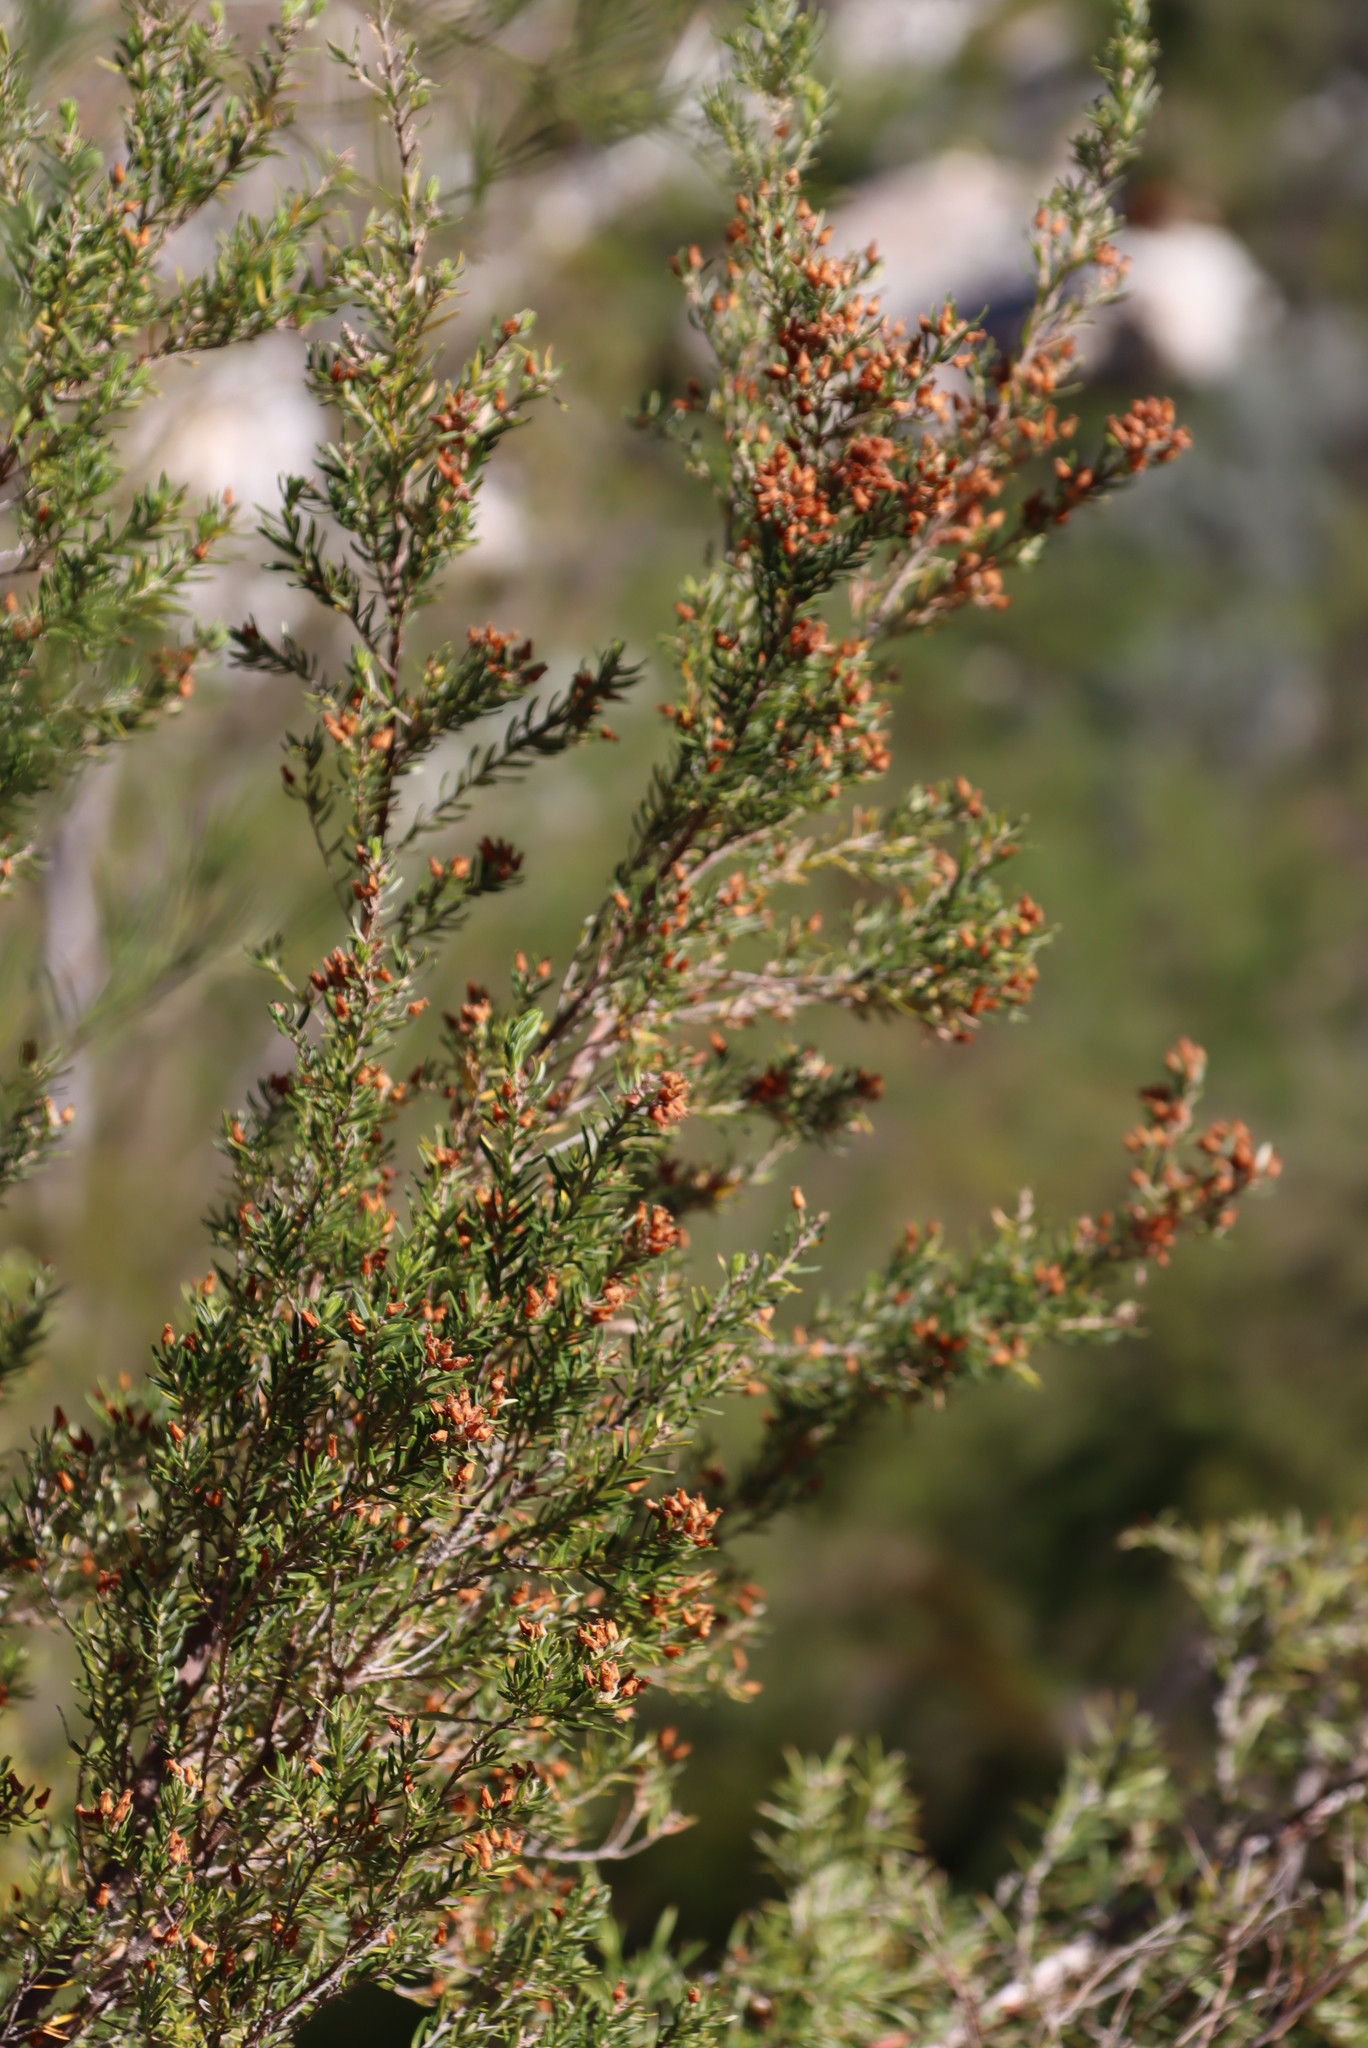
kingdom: Plantae
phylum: Tracheophyta
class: Magnoliopsida
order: Ericales
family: Ericaceae
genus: Erica
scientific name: Erica caffra
